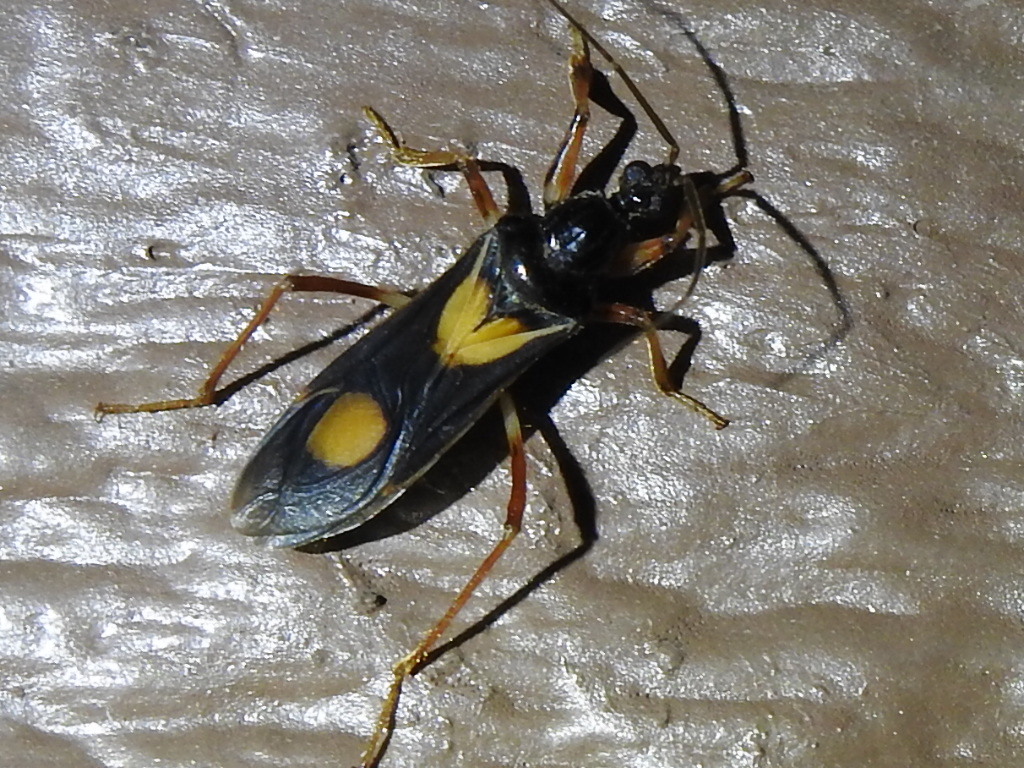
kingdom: Animalia
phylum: Arthropoda
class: Insecta
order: Hemiptera
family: Reduviidae
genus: Rasahus
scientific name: Rasahus hamatus
